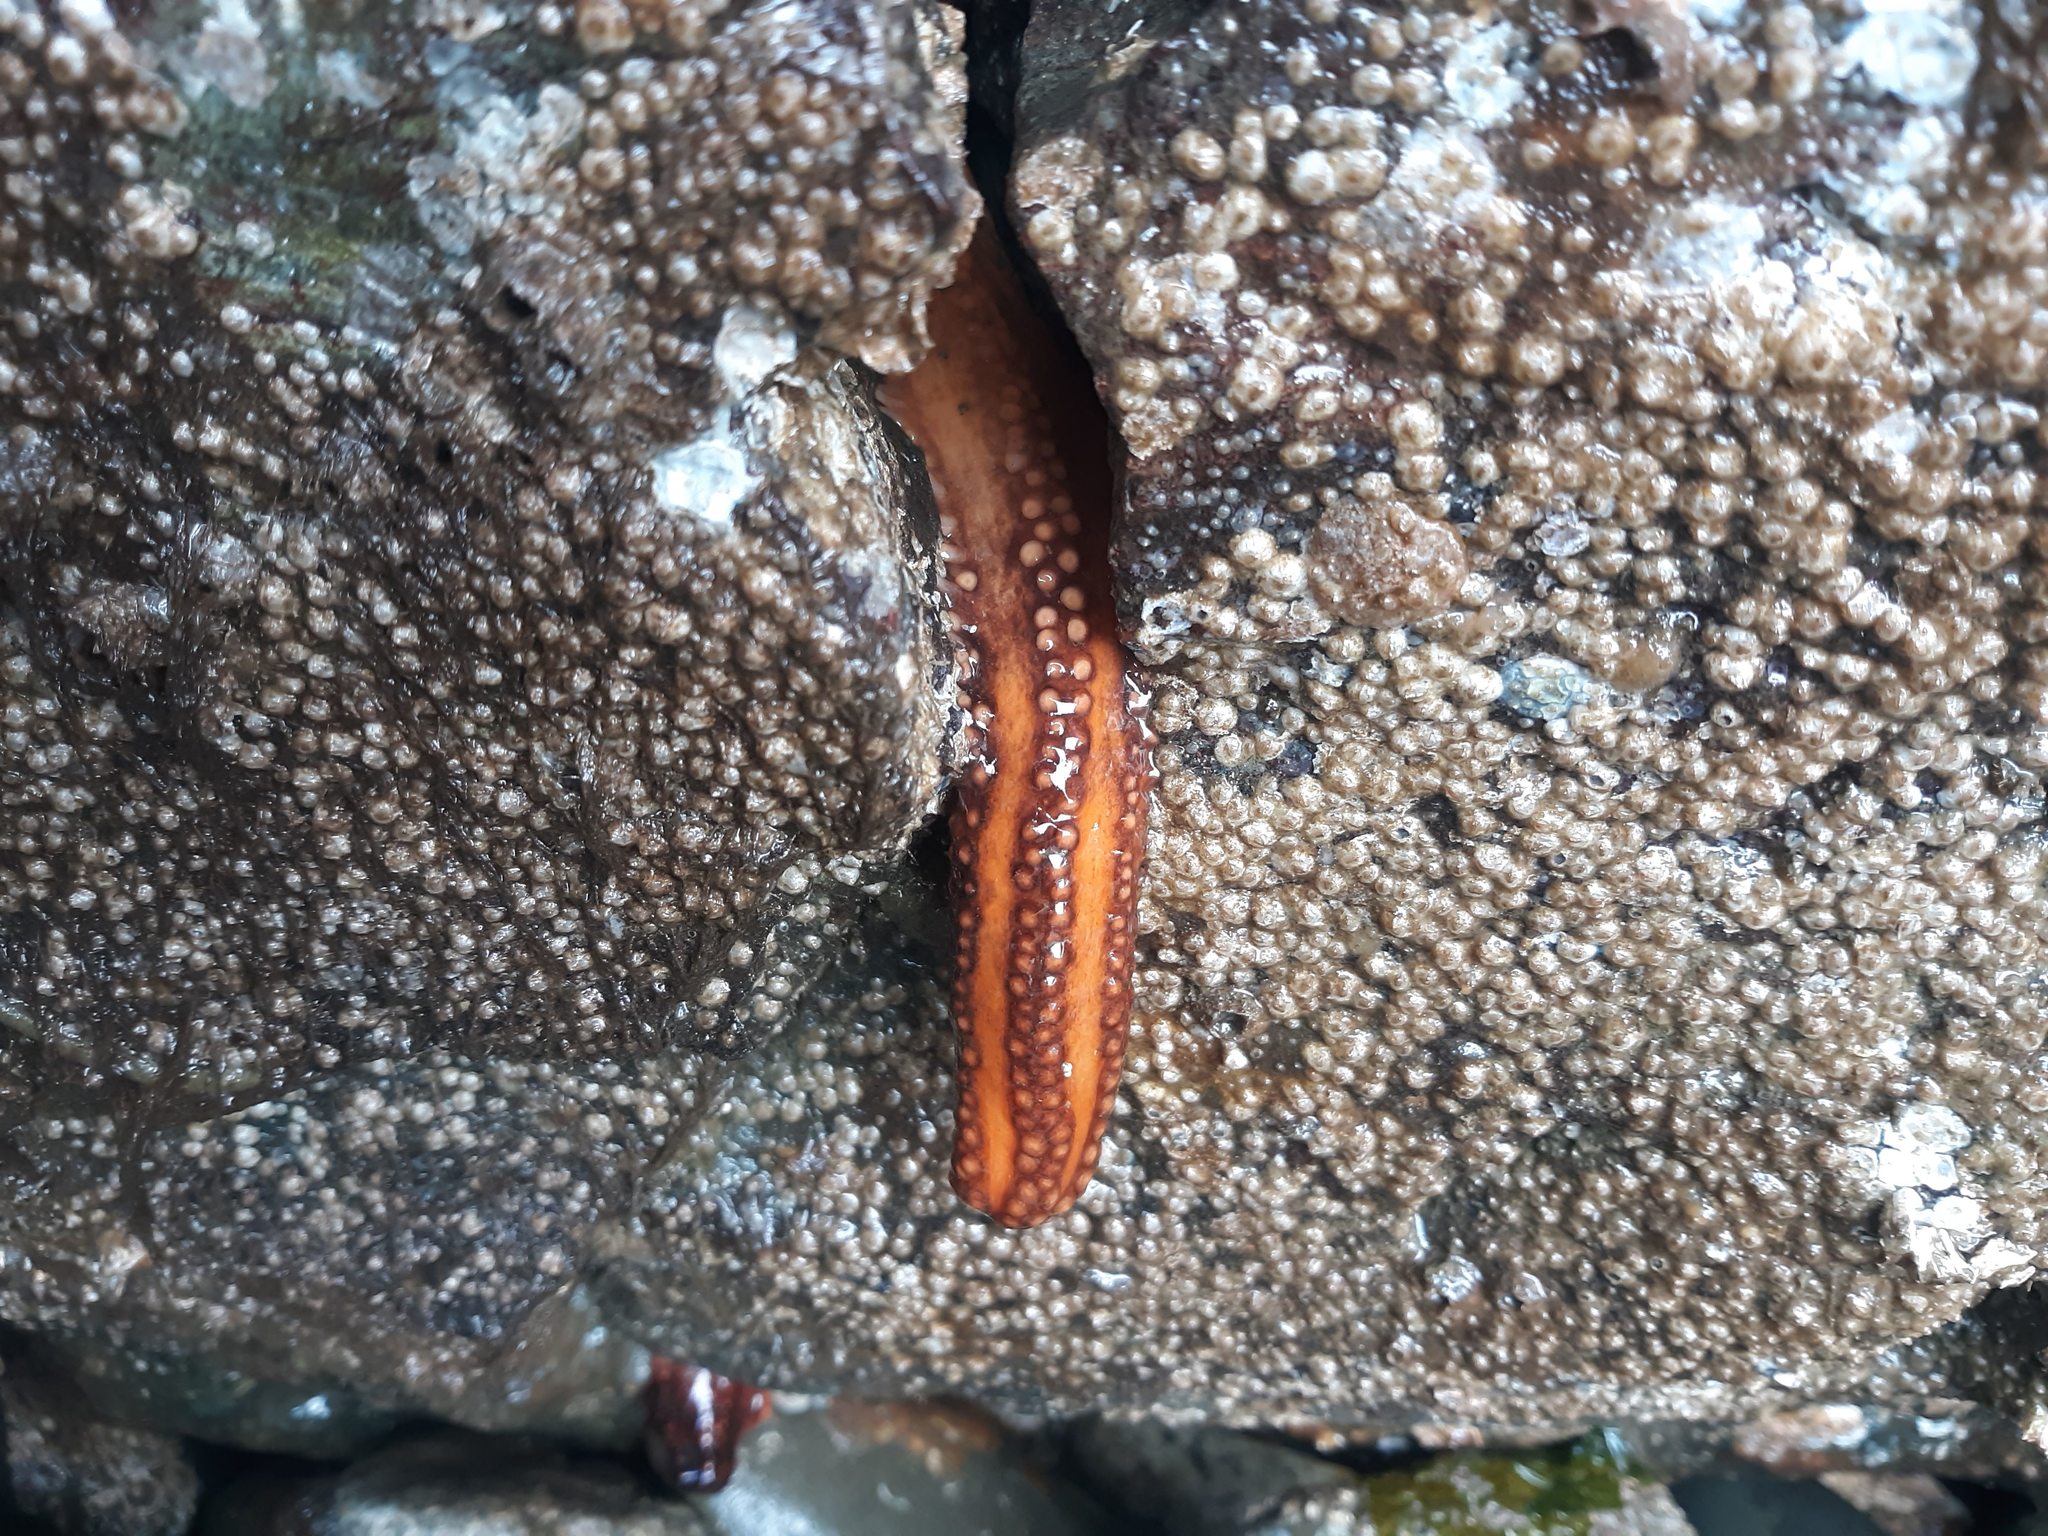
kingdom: Animalia
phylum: Echinodermata
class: Holothuroidea
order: Dendrochirotida
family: Cucumariidae
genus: Cucumaria
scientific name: Cucumaria miniata
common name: Orange sea cucumber
